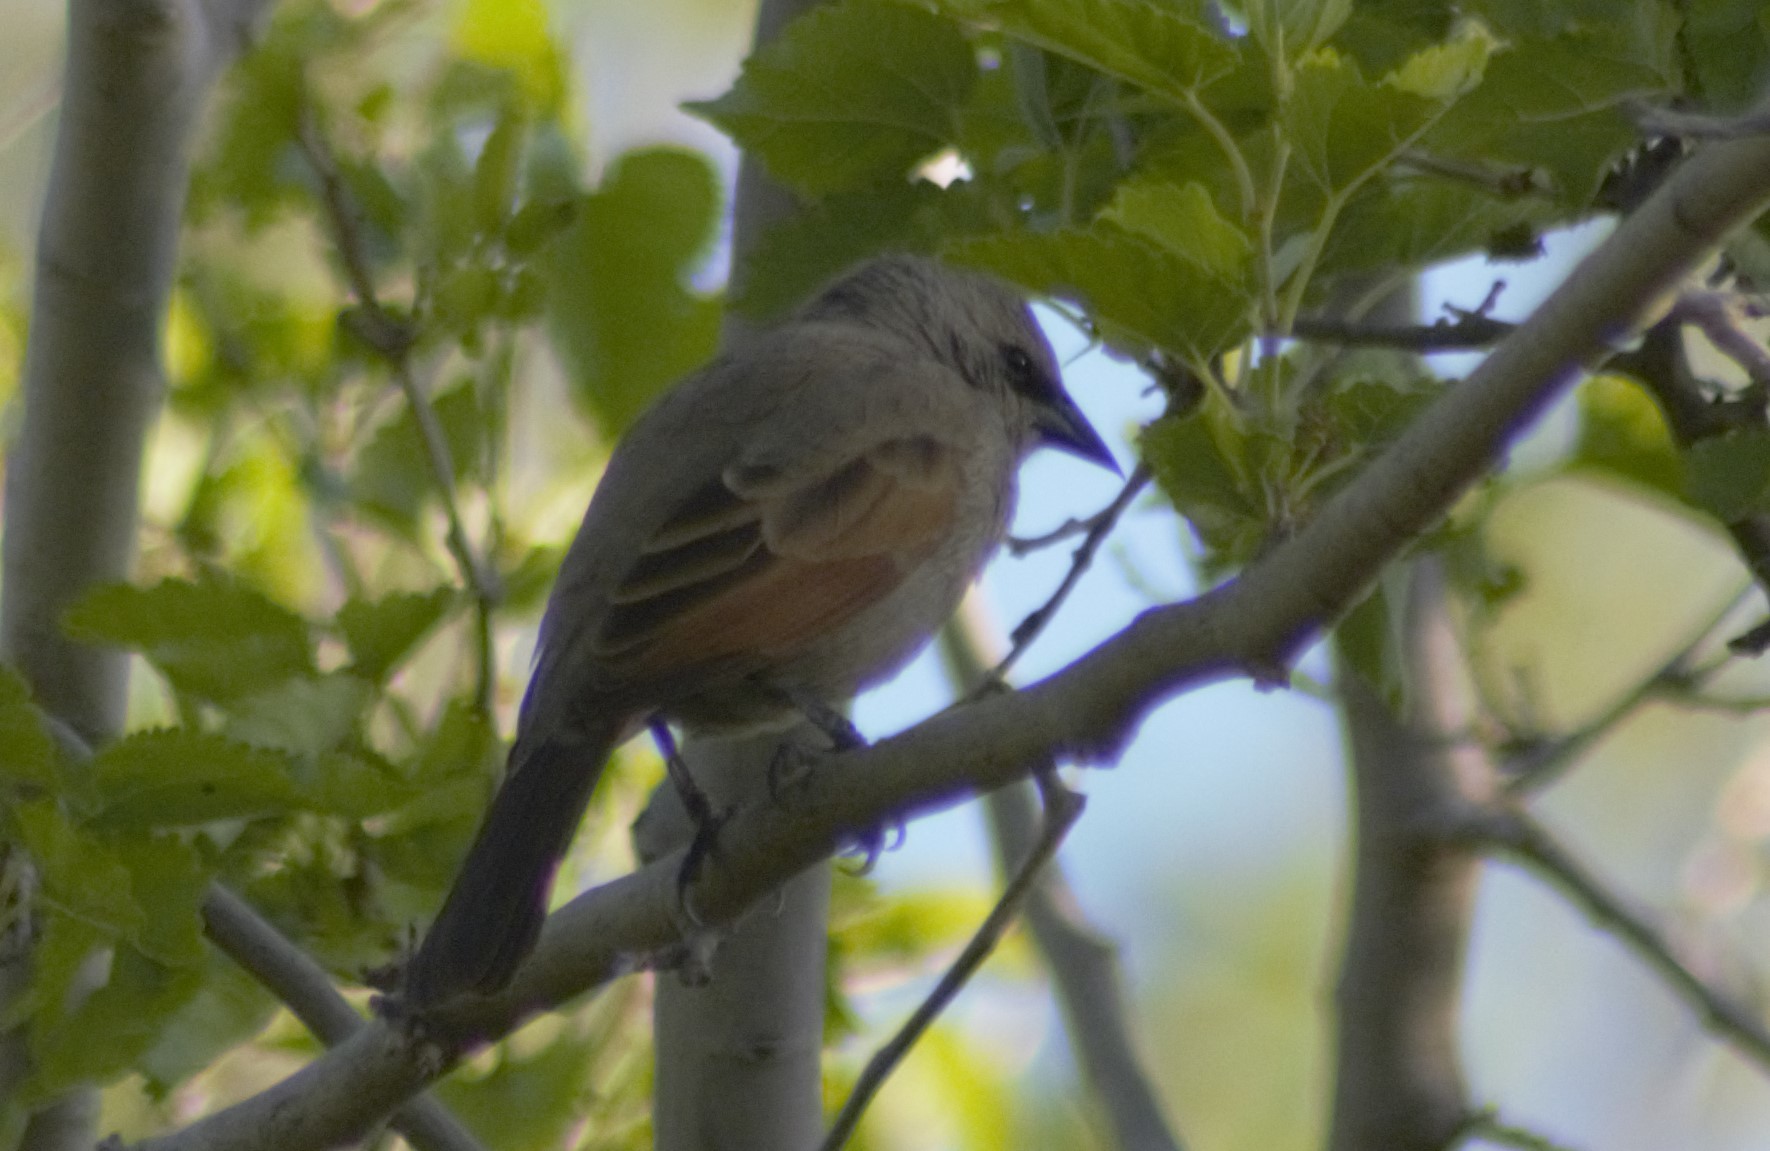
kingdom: Animalia
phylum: Chordata
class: Aves
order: Passeriformes
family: Icteridae
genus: Agelaioides
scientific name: Agelaioides badius
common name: Baywing
